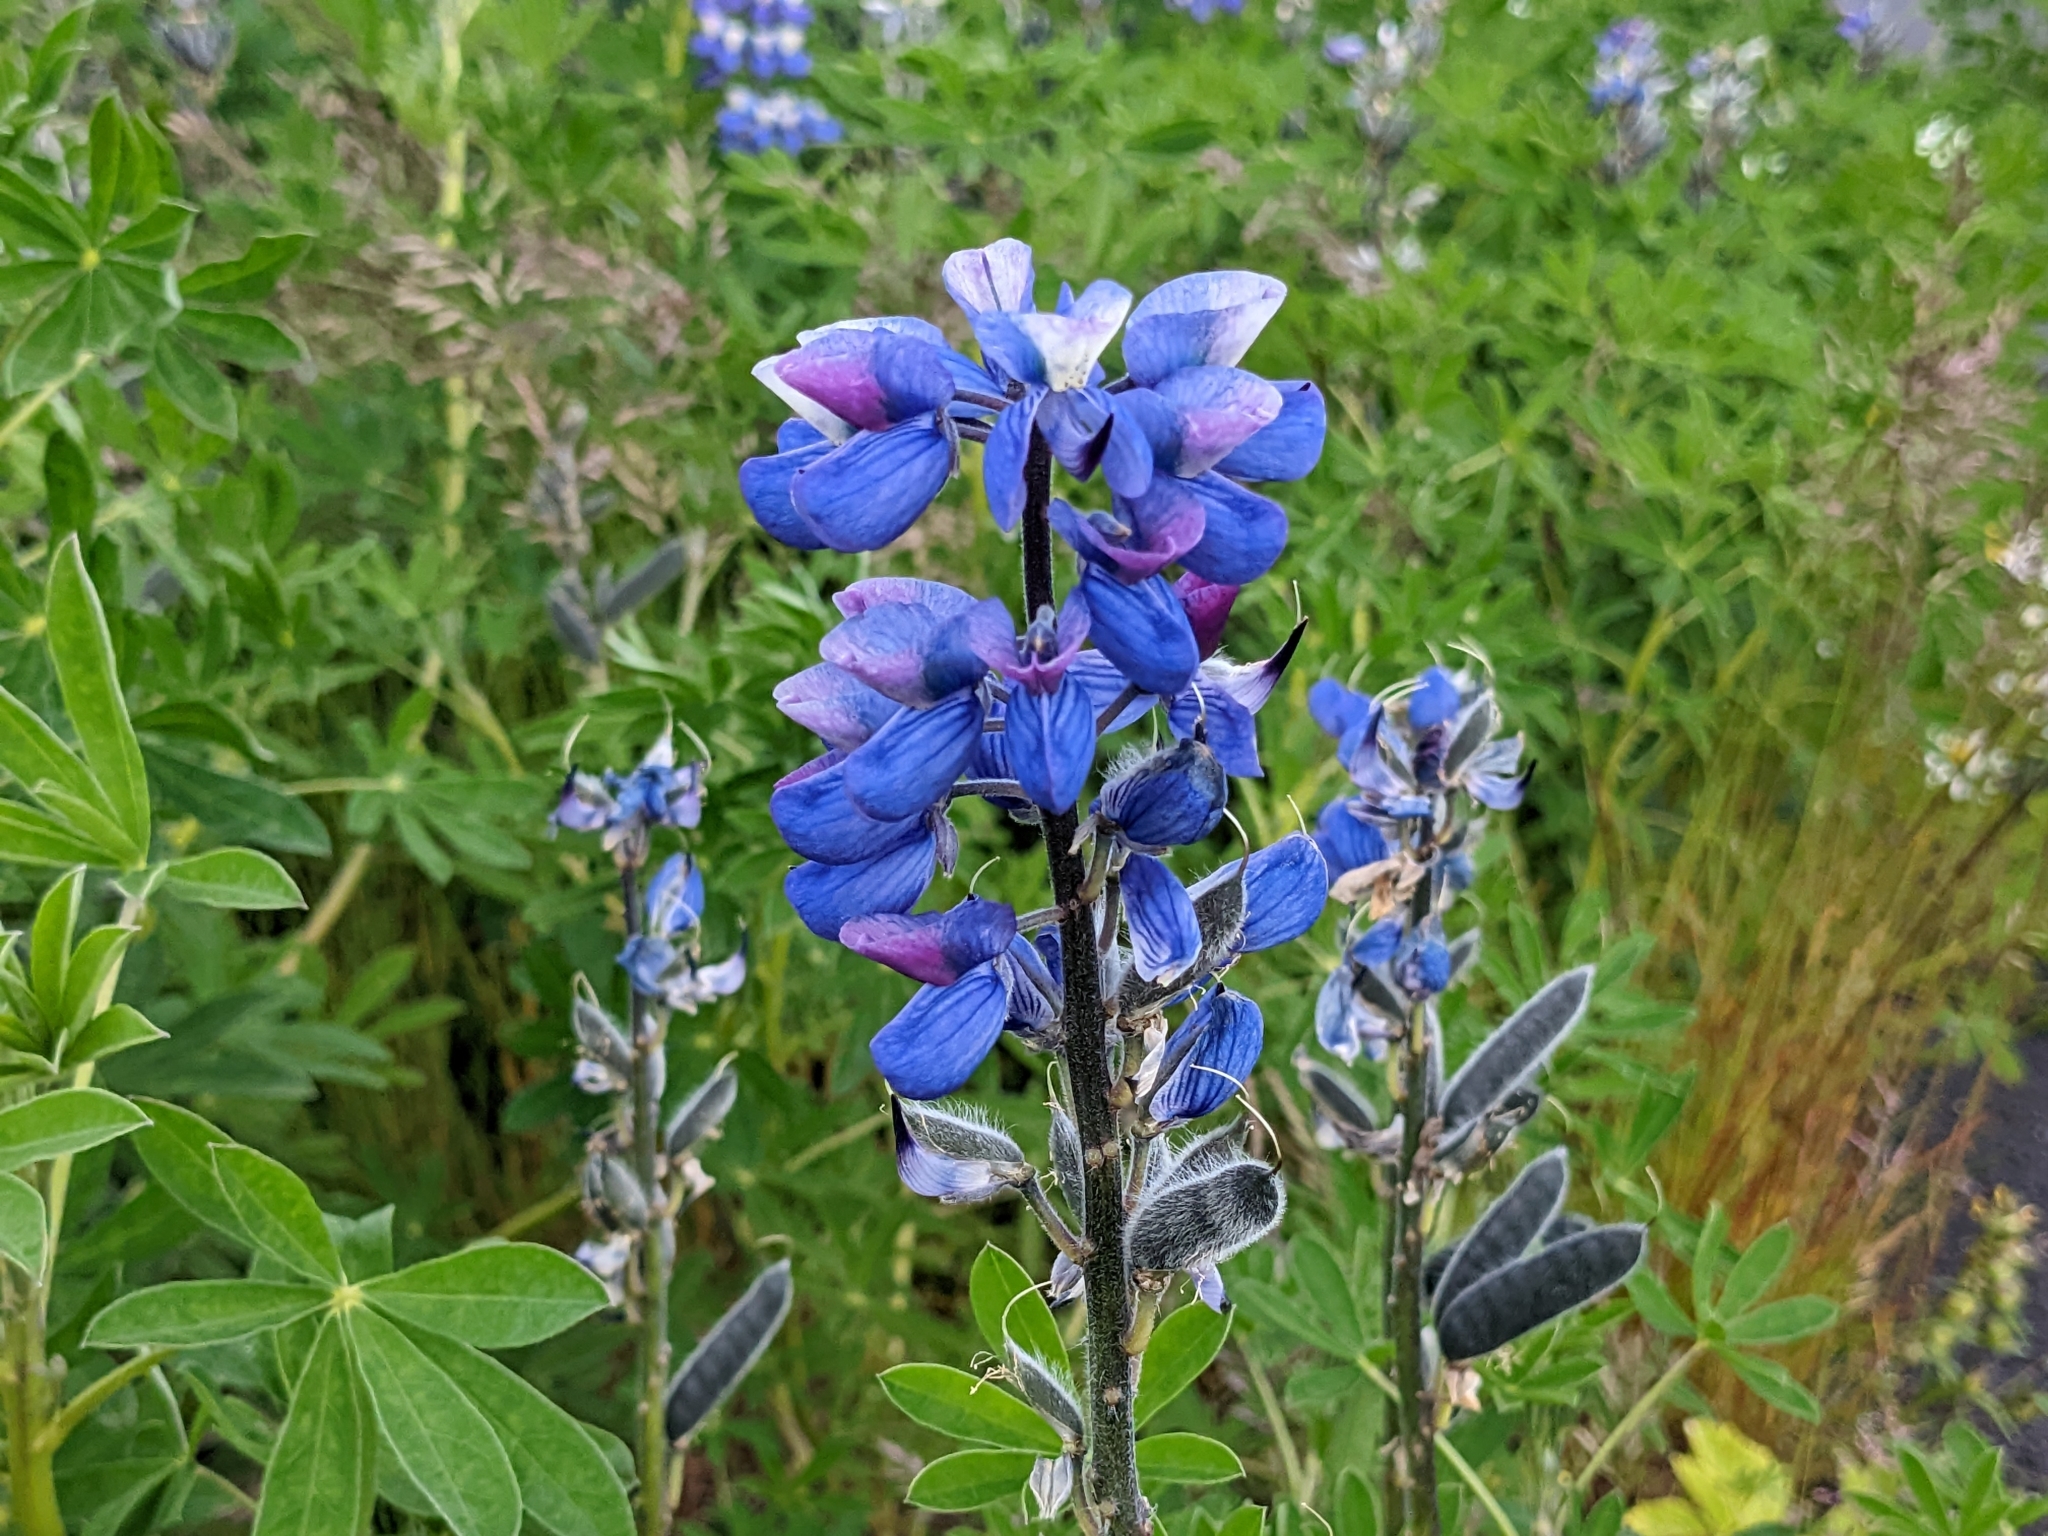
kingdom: Plantae
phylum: Tracheophyta
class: Magnoliopsida
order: Fabales
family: Fabaceae
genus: Lupinus
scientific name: Lupinus nootkatensis
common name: Nootka lupine
